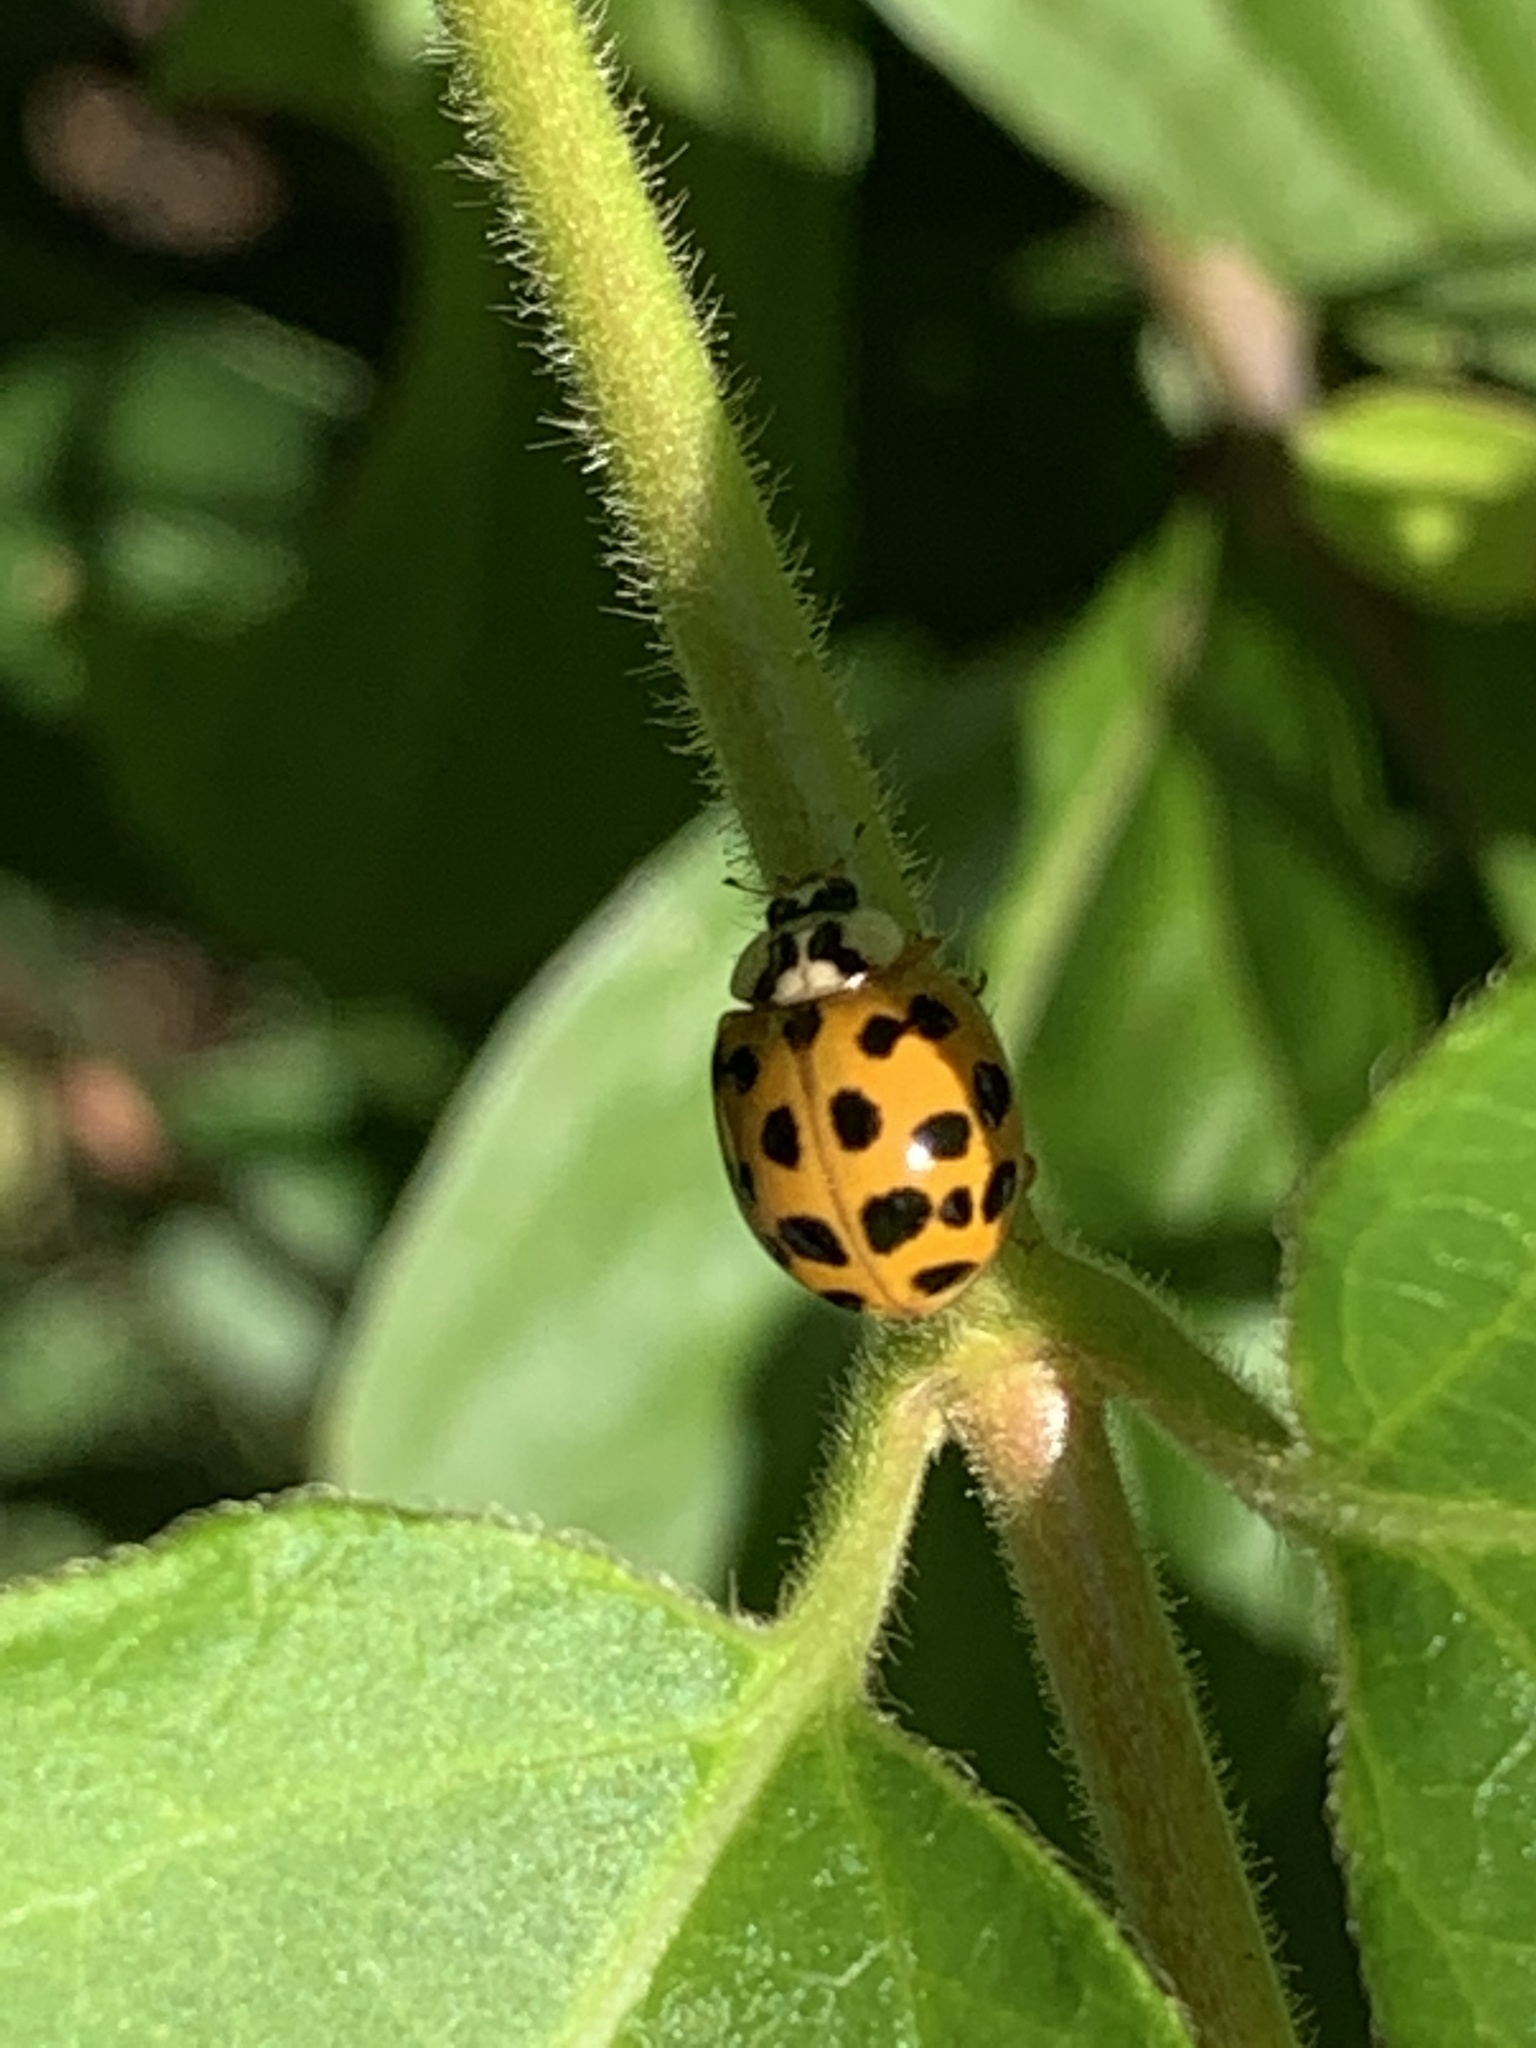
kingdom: Animalia
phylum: Arthropoda
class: Insecta
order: Coleoptera
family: Coccinellidae
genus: Harmonia
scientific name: Harmonia axyridis
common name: Harlequin ladybird
